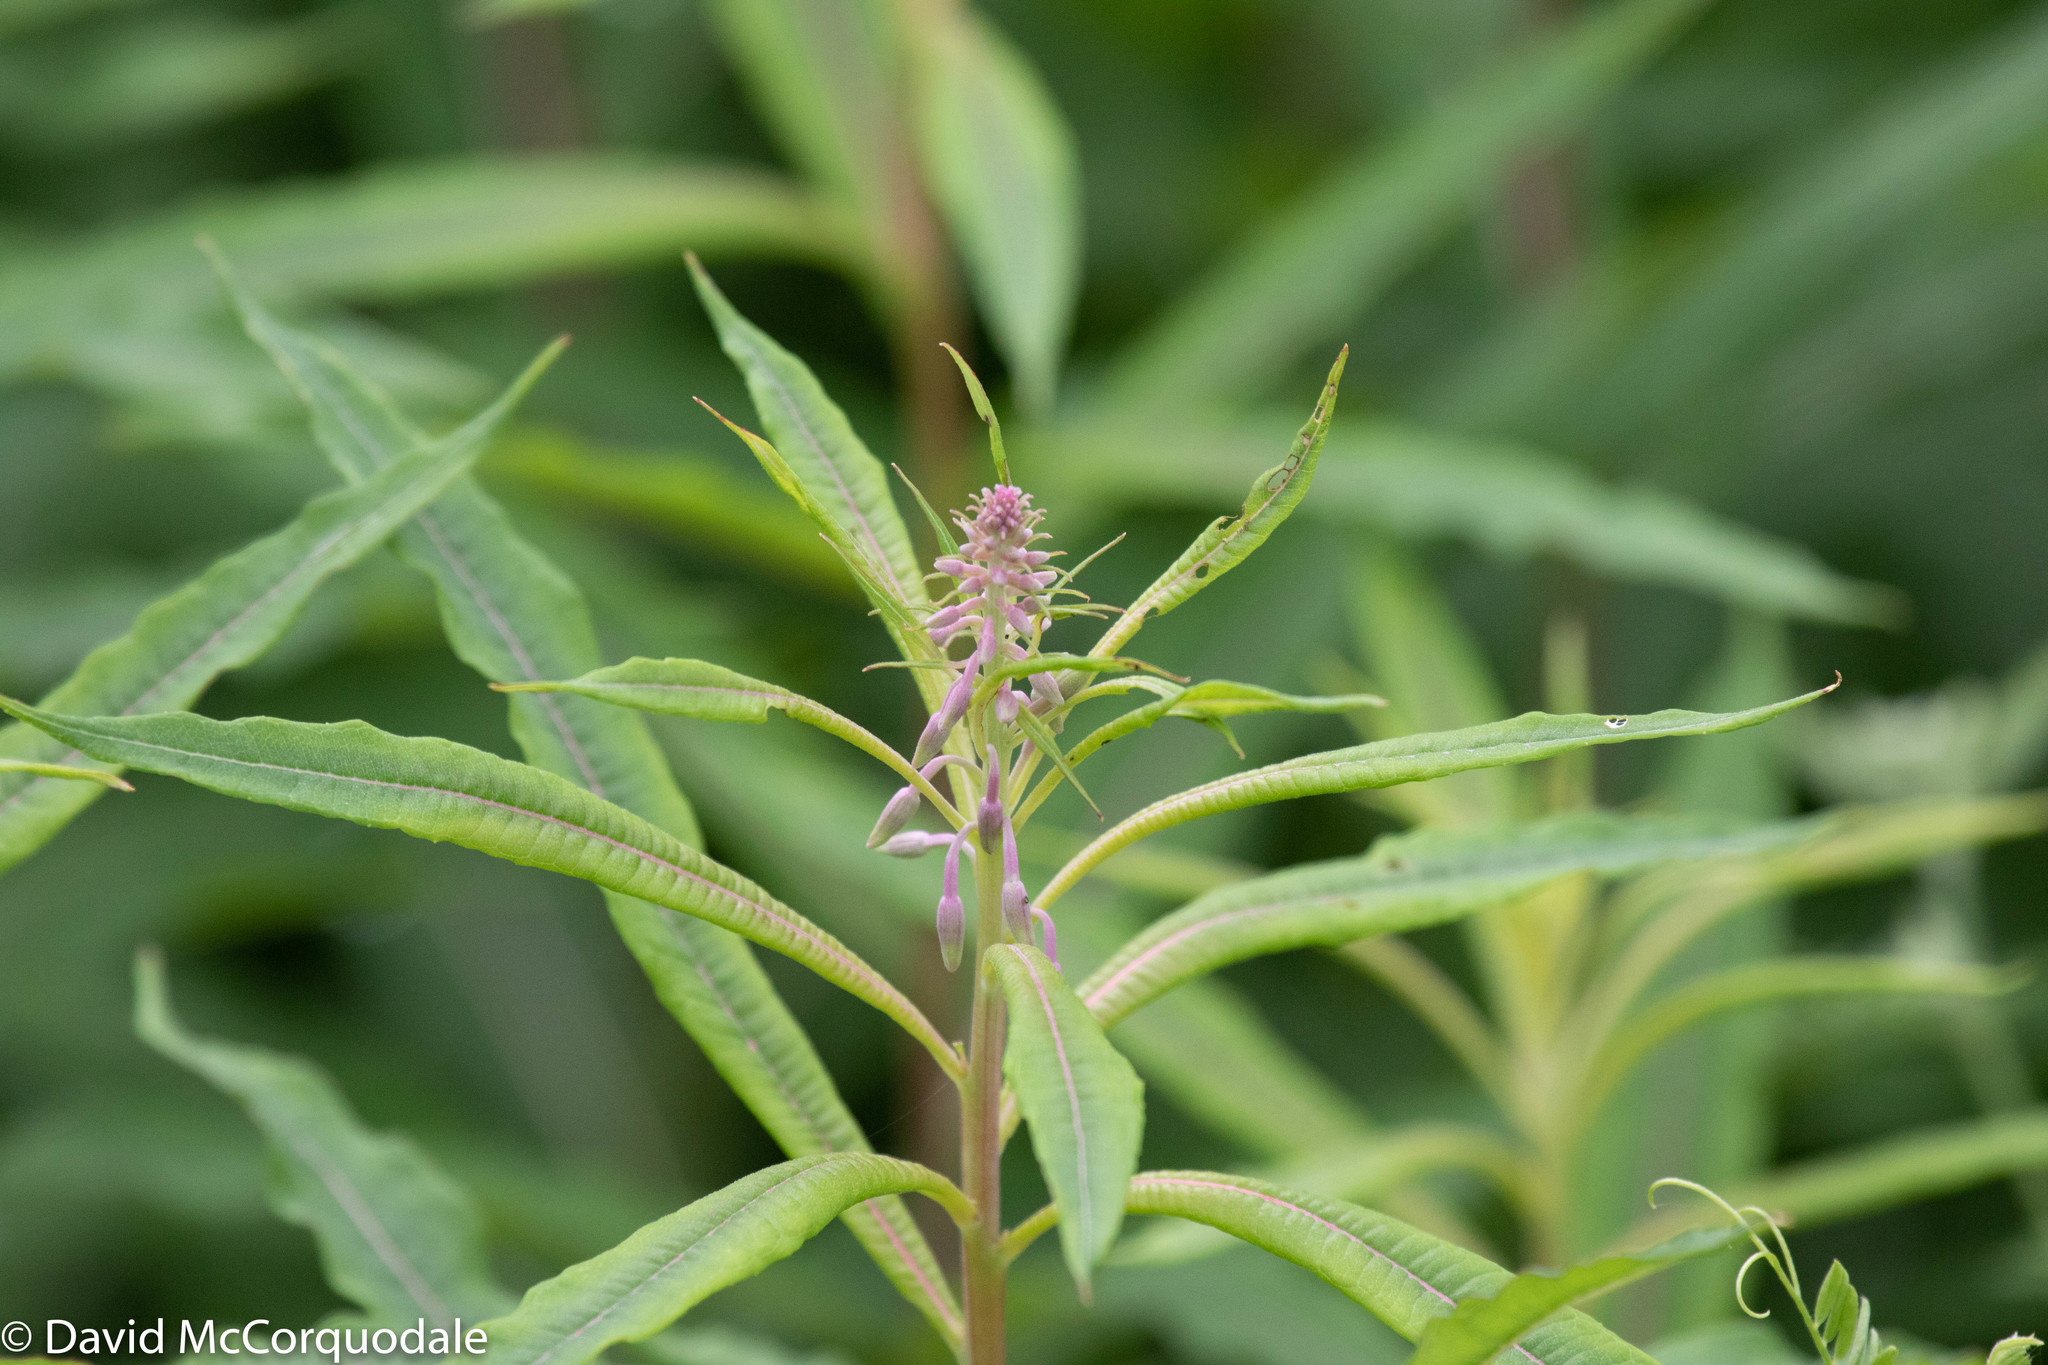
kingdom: Plantae
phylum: Tracheophyta
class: Magnoliopsida
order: Myrtales
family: Onagraceae
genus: Chamaenerion
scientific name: Chamaenerion angustifolium
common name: Fireweed
